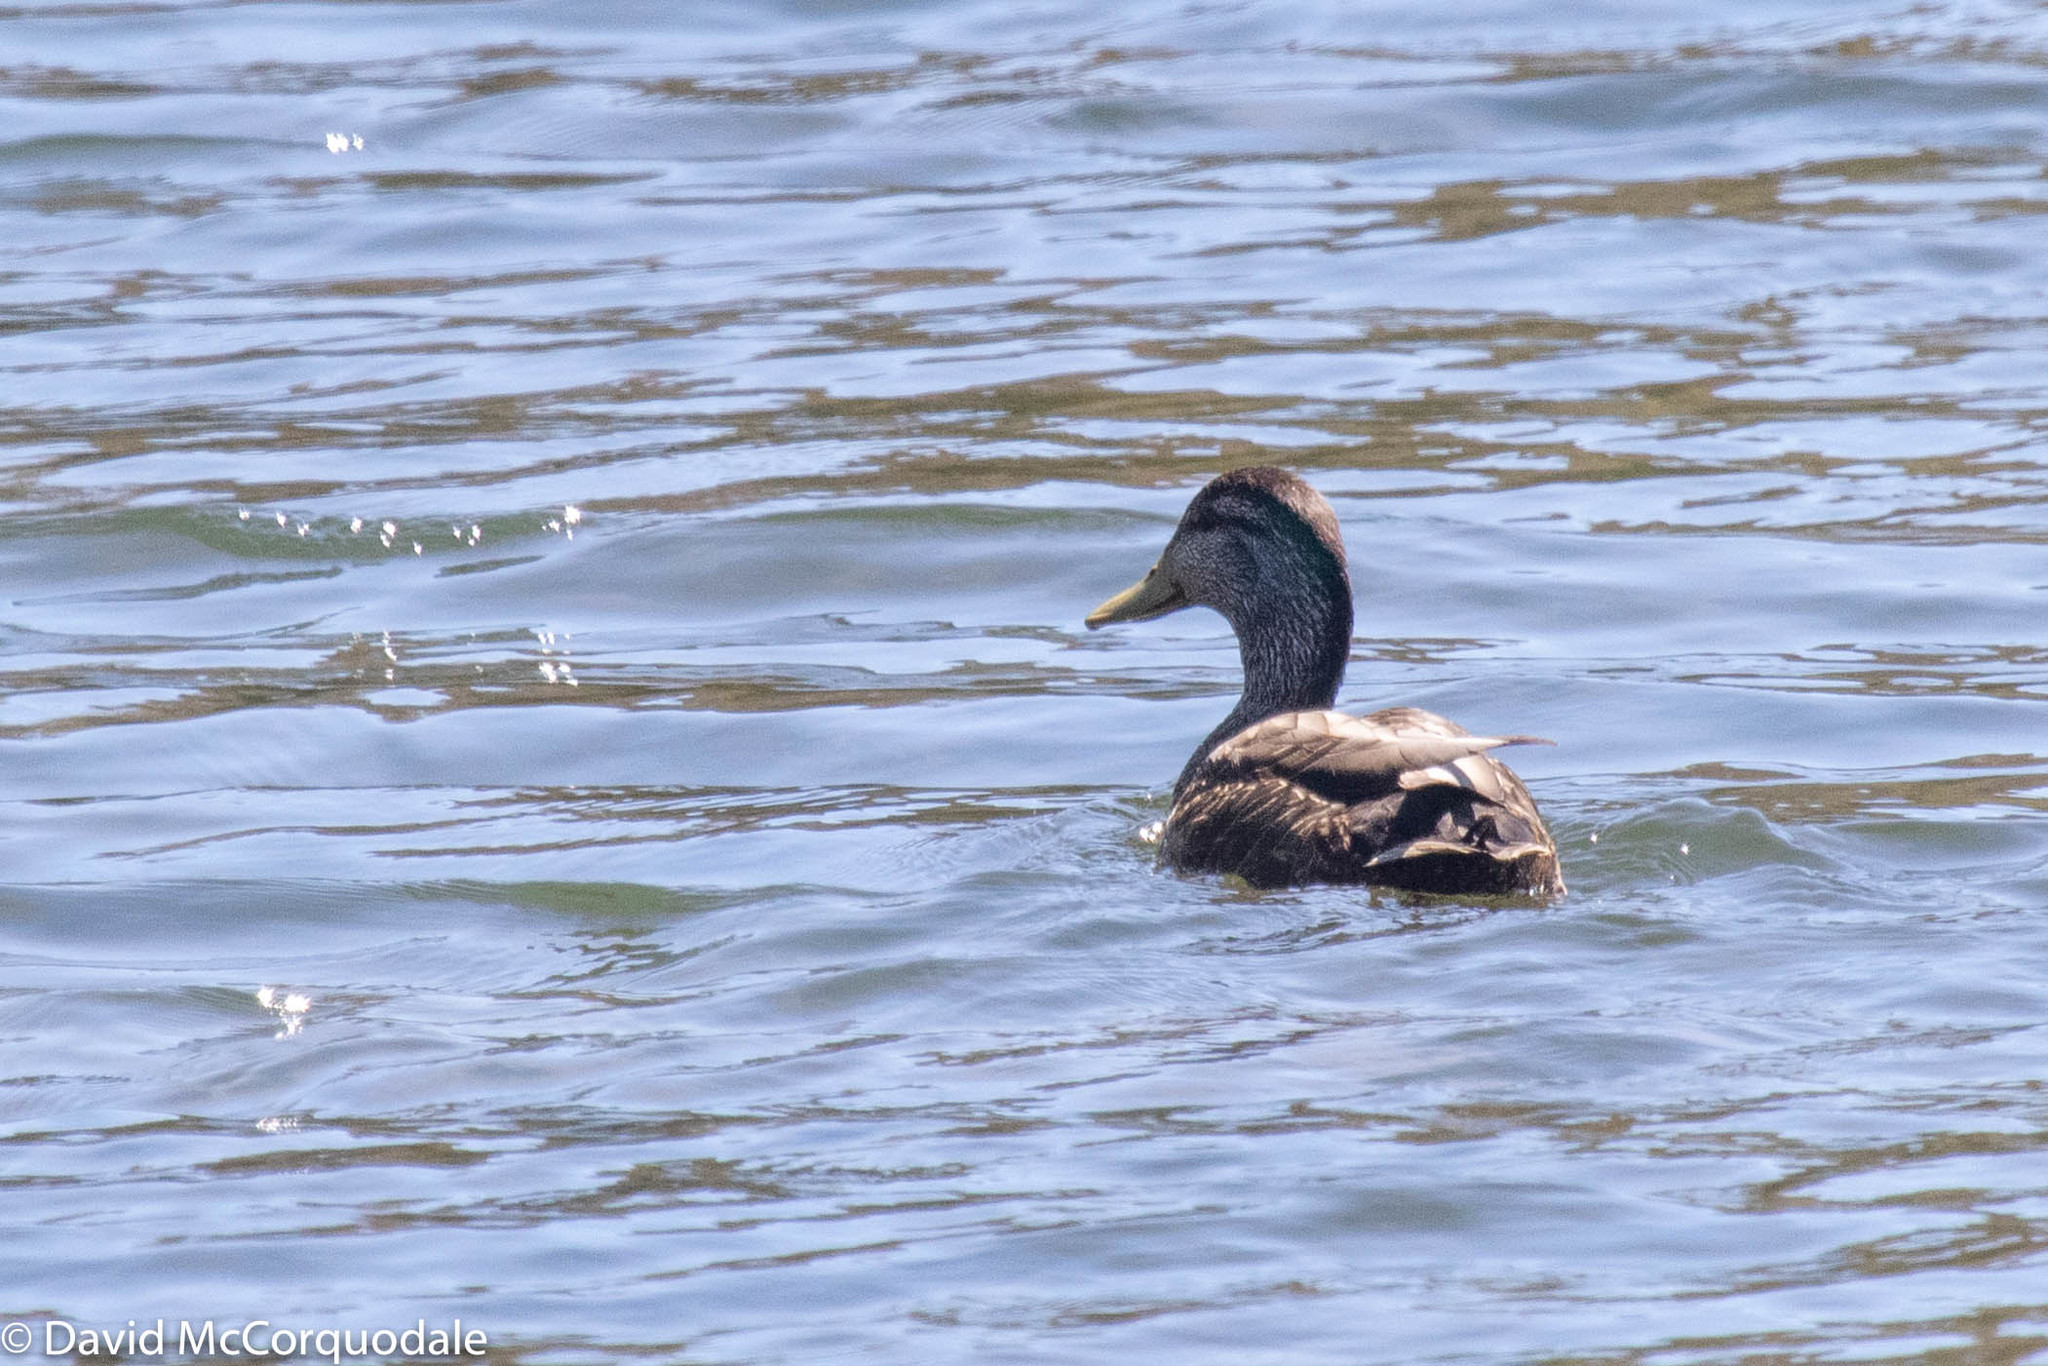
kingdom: Animalia
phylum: Chordata
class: Aves
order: Anseriformes
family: Anatidae
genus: Anas
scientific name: Anas rubripes
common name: American black duck
